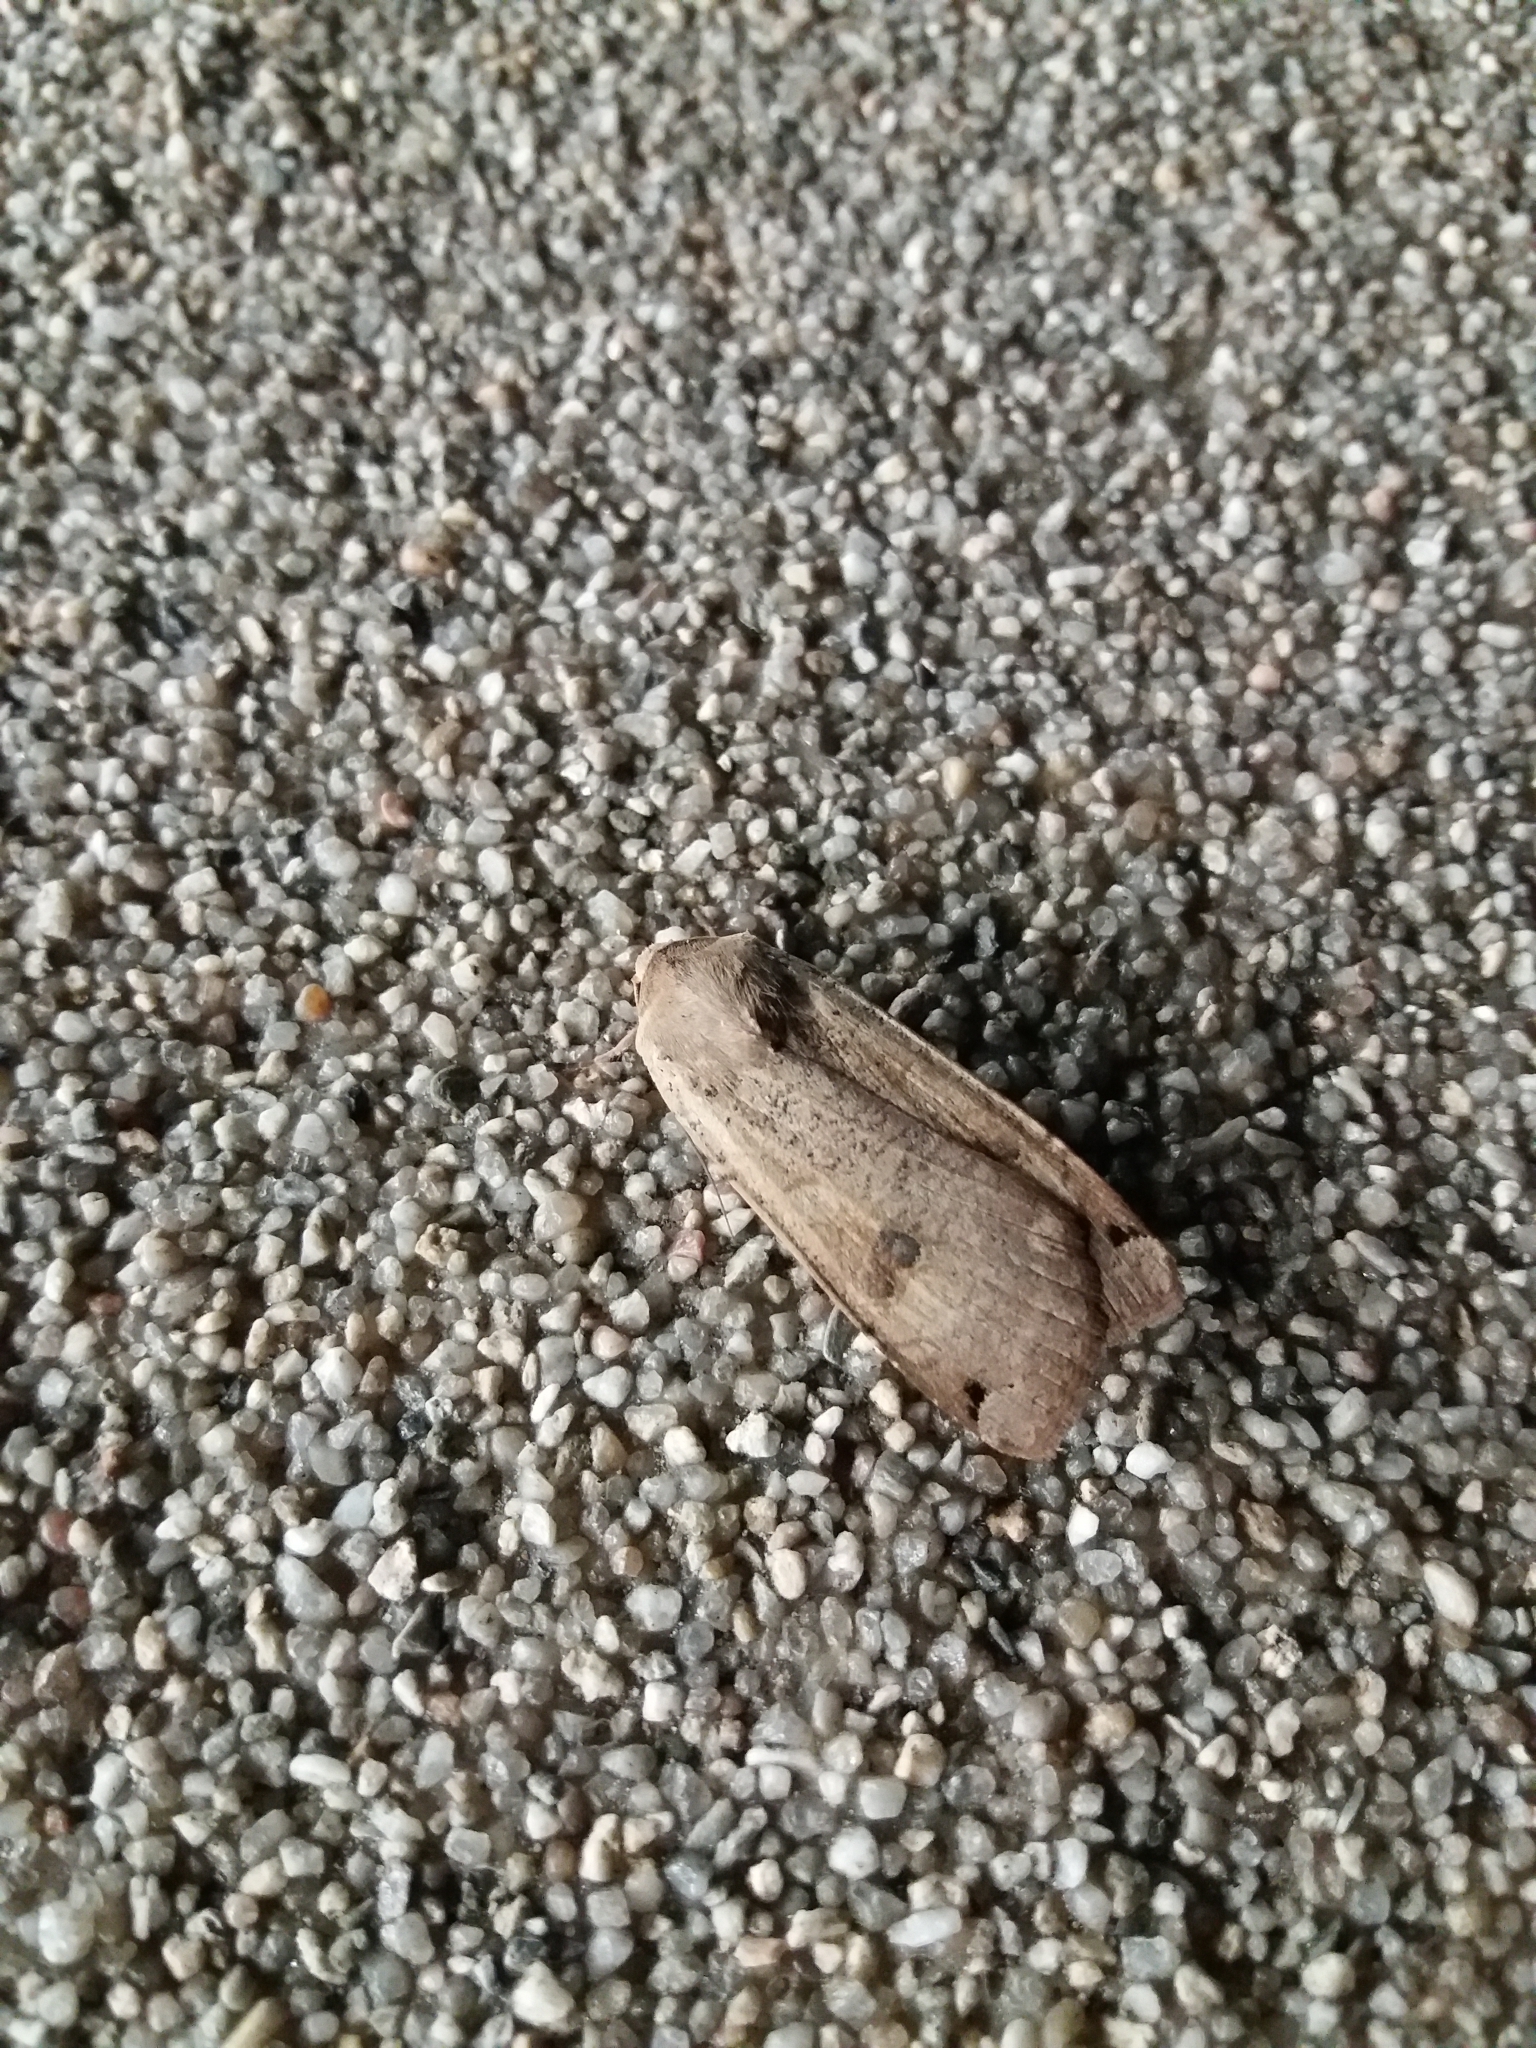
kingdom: Animalia
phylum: Arthropoda
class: Insecta
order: Lepidoptera
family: Noctuidae
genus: Noctua
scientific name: Noctua pronuba
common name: Large yellow underwing
